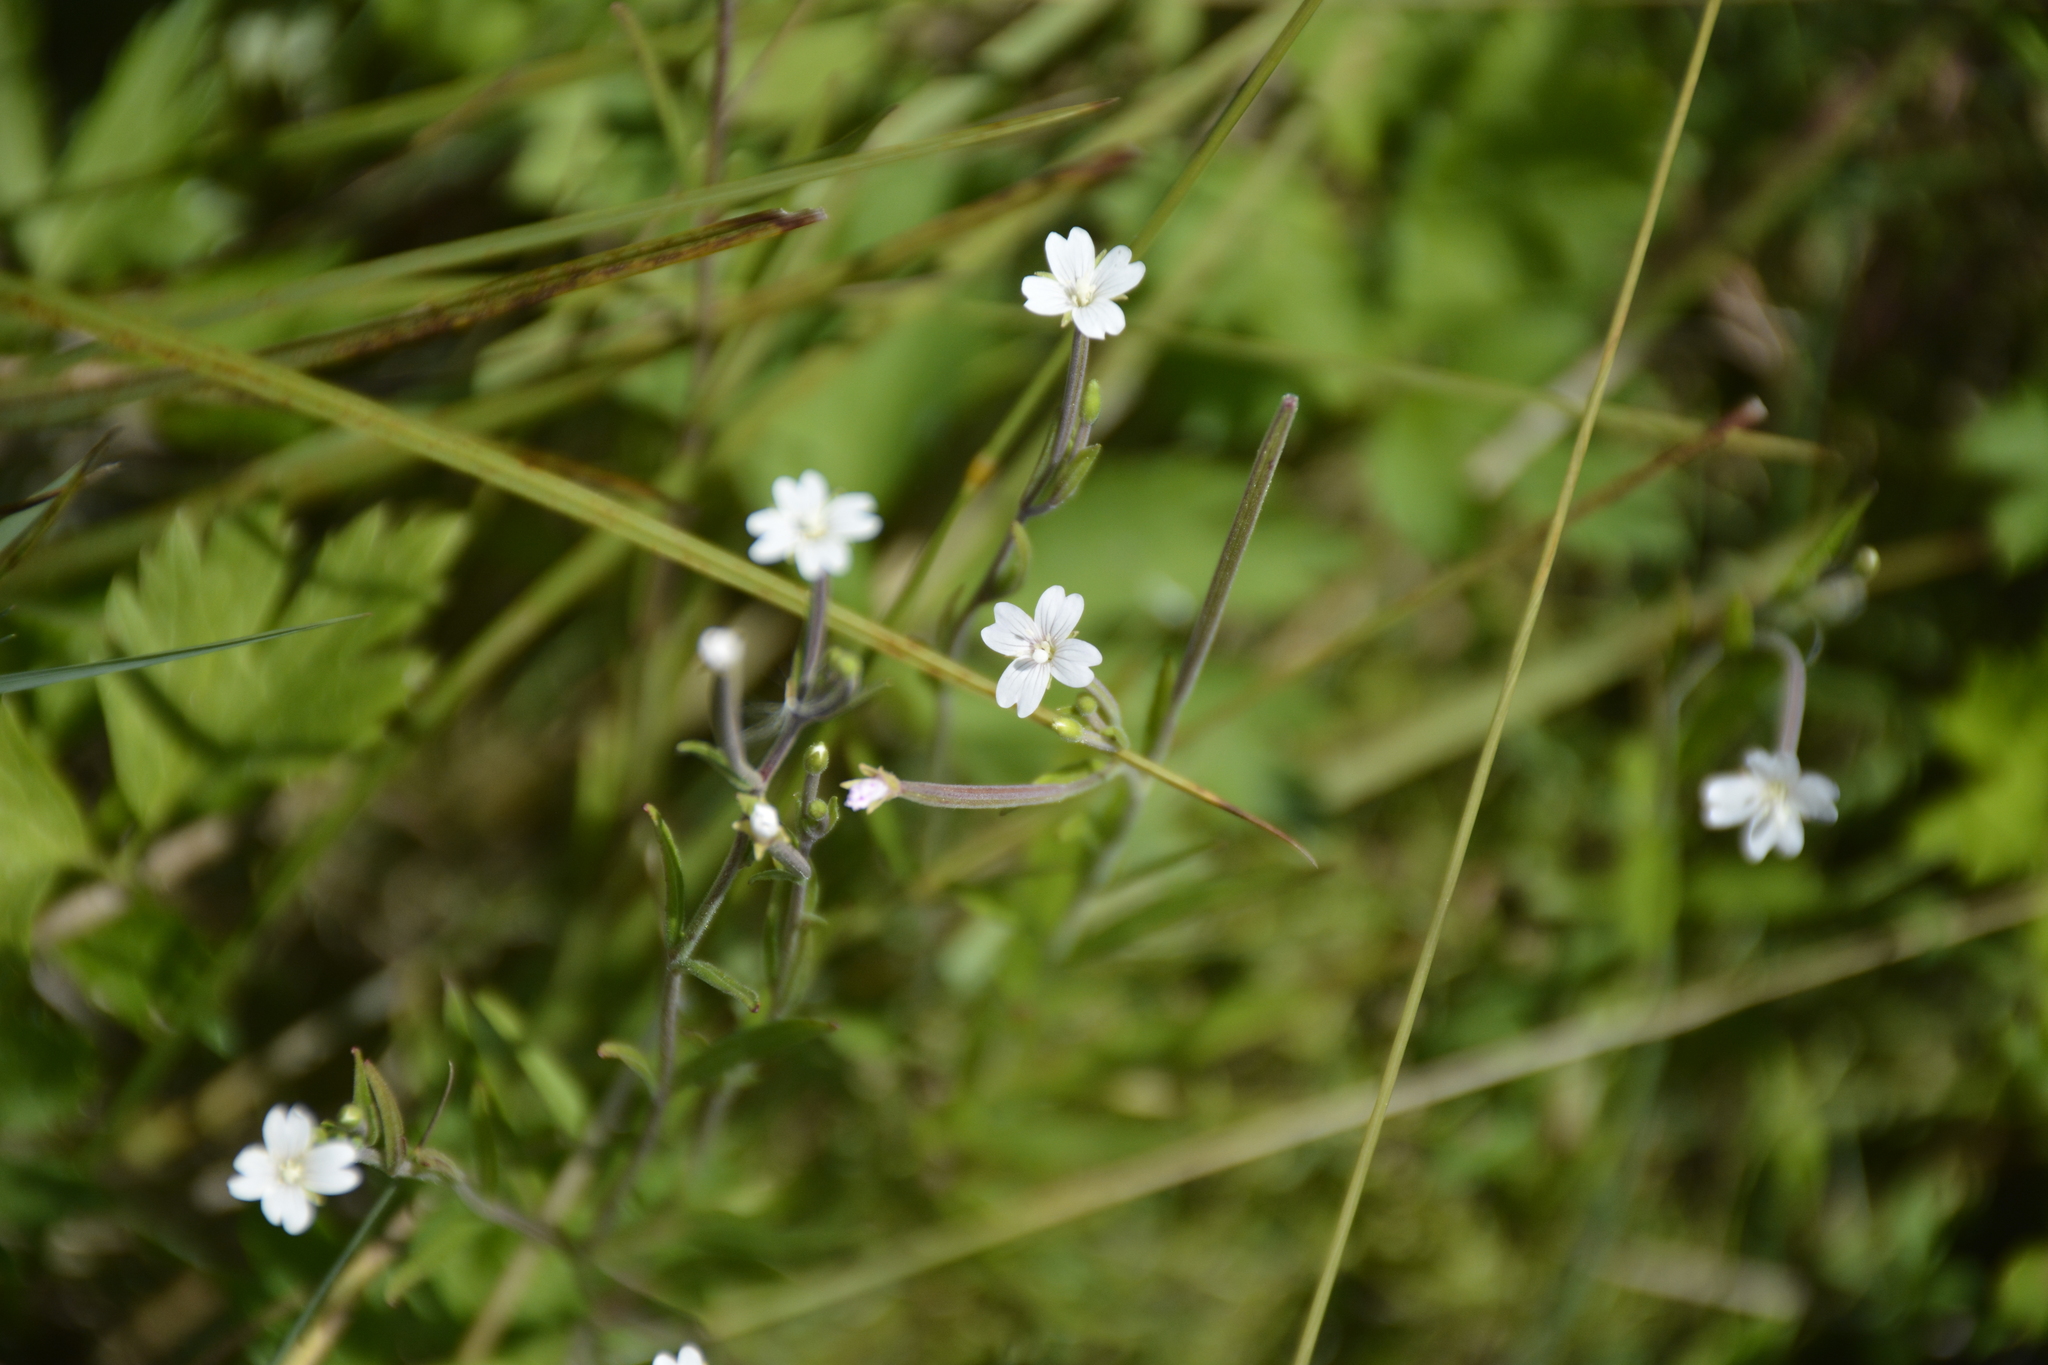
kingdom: Plantae
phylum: Tracheophyta
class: Magnoliopsida
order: Myrtales
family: Onagraceae
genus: Epilobium
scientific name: Epilobium palustre
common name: Marsh willowherb
